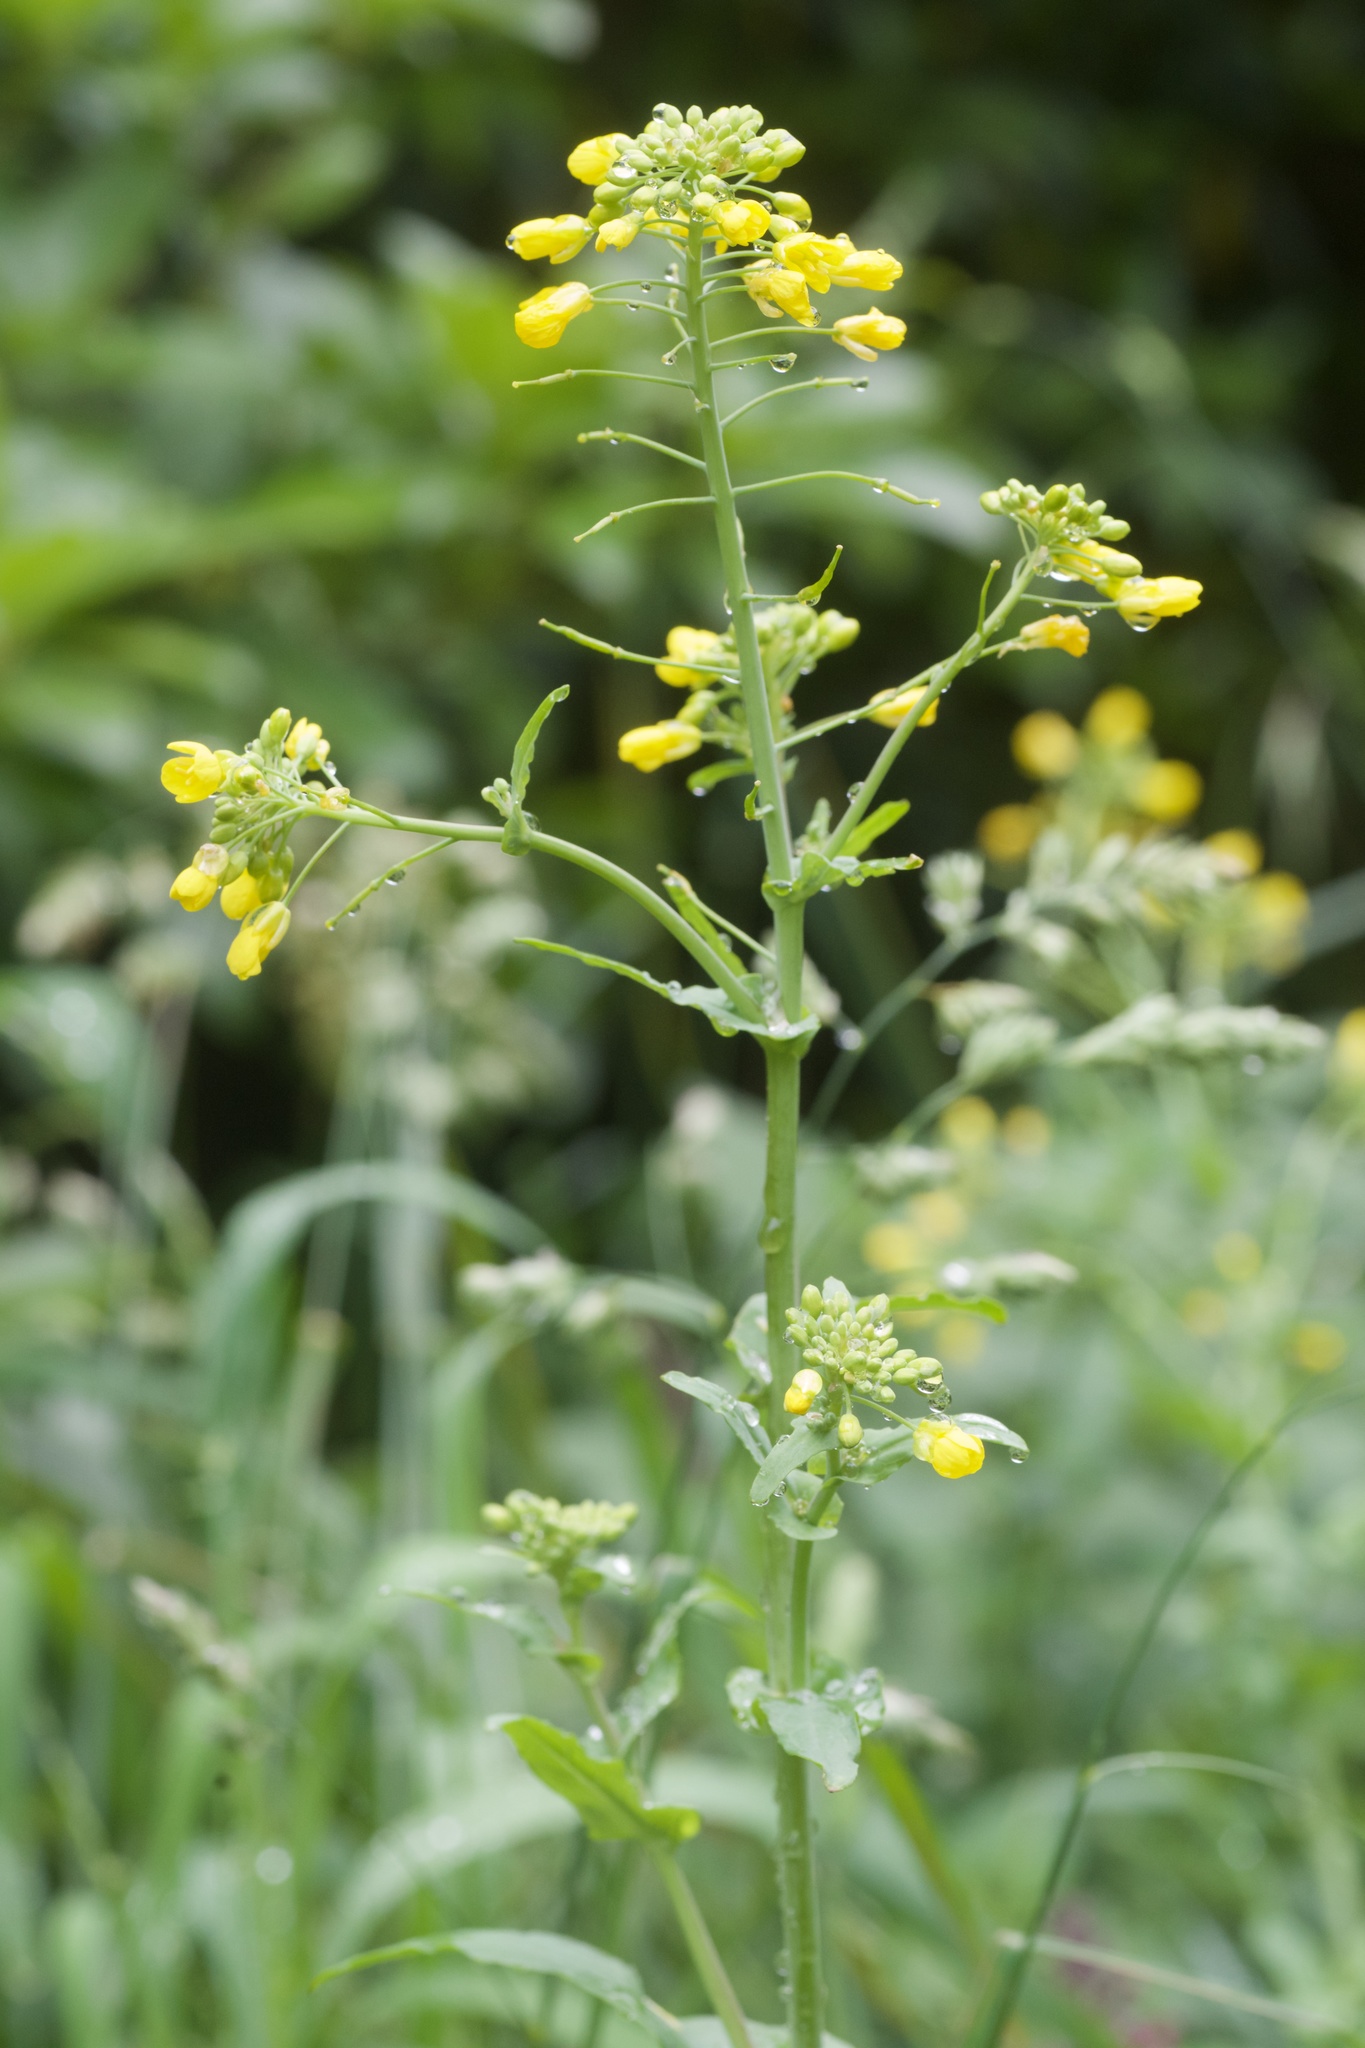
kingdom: Plantae
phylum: Tracheophyta
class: Magnoliopsida
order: Brassicales
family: Brassicaceae
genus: Brassica
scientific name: Brassica rapa
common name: Field mustard
